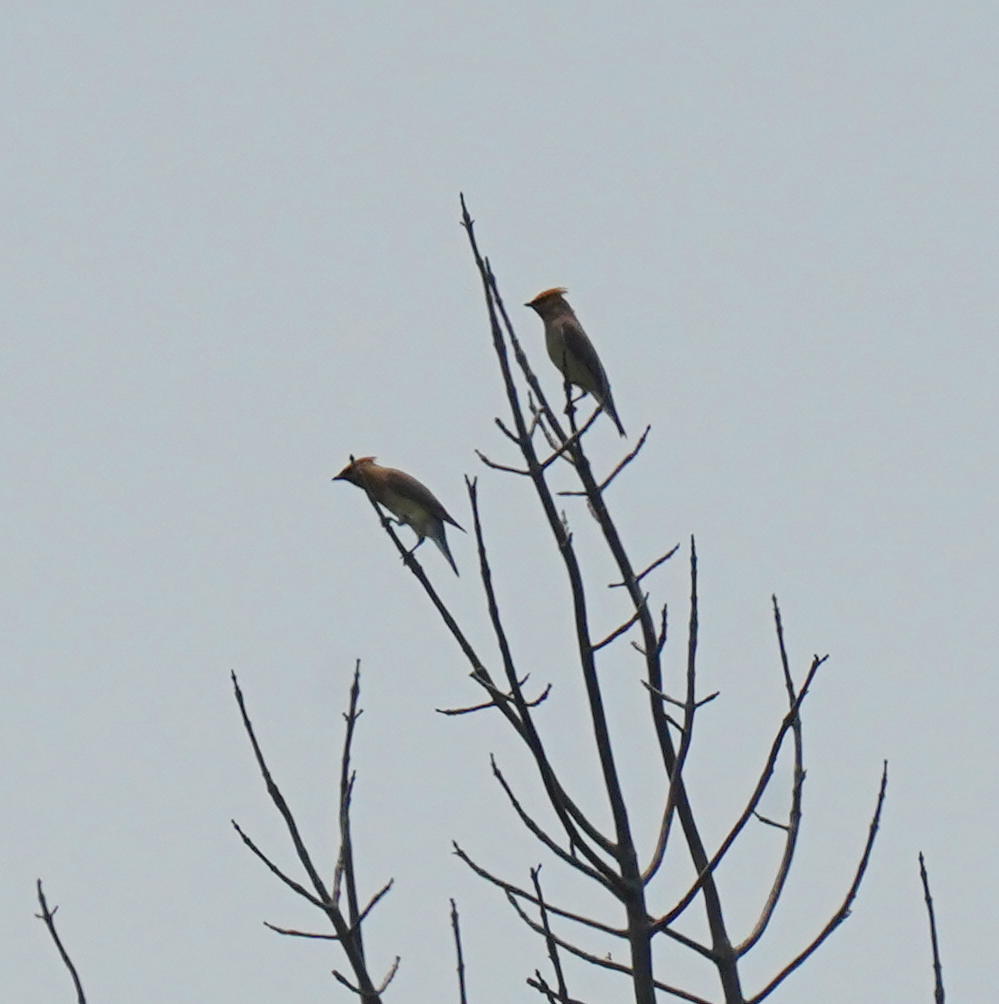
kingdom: Animalia
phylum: Chordata
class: Aves
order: Passeriformes
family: Bombycillidae
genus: Bombycilla
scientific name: Bombycilla cedrorum
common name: Cedar waxwing
